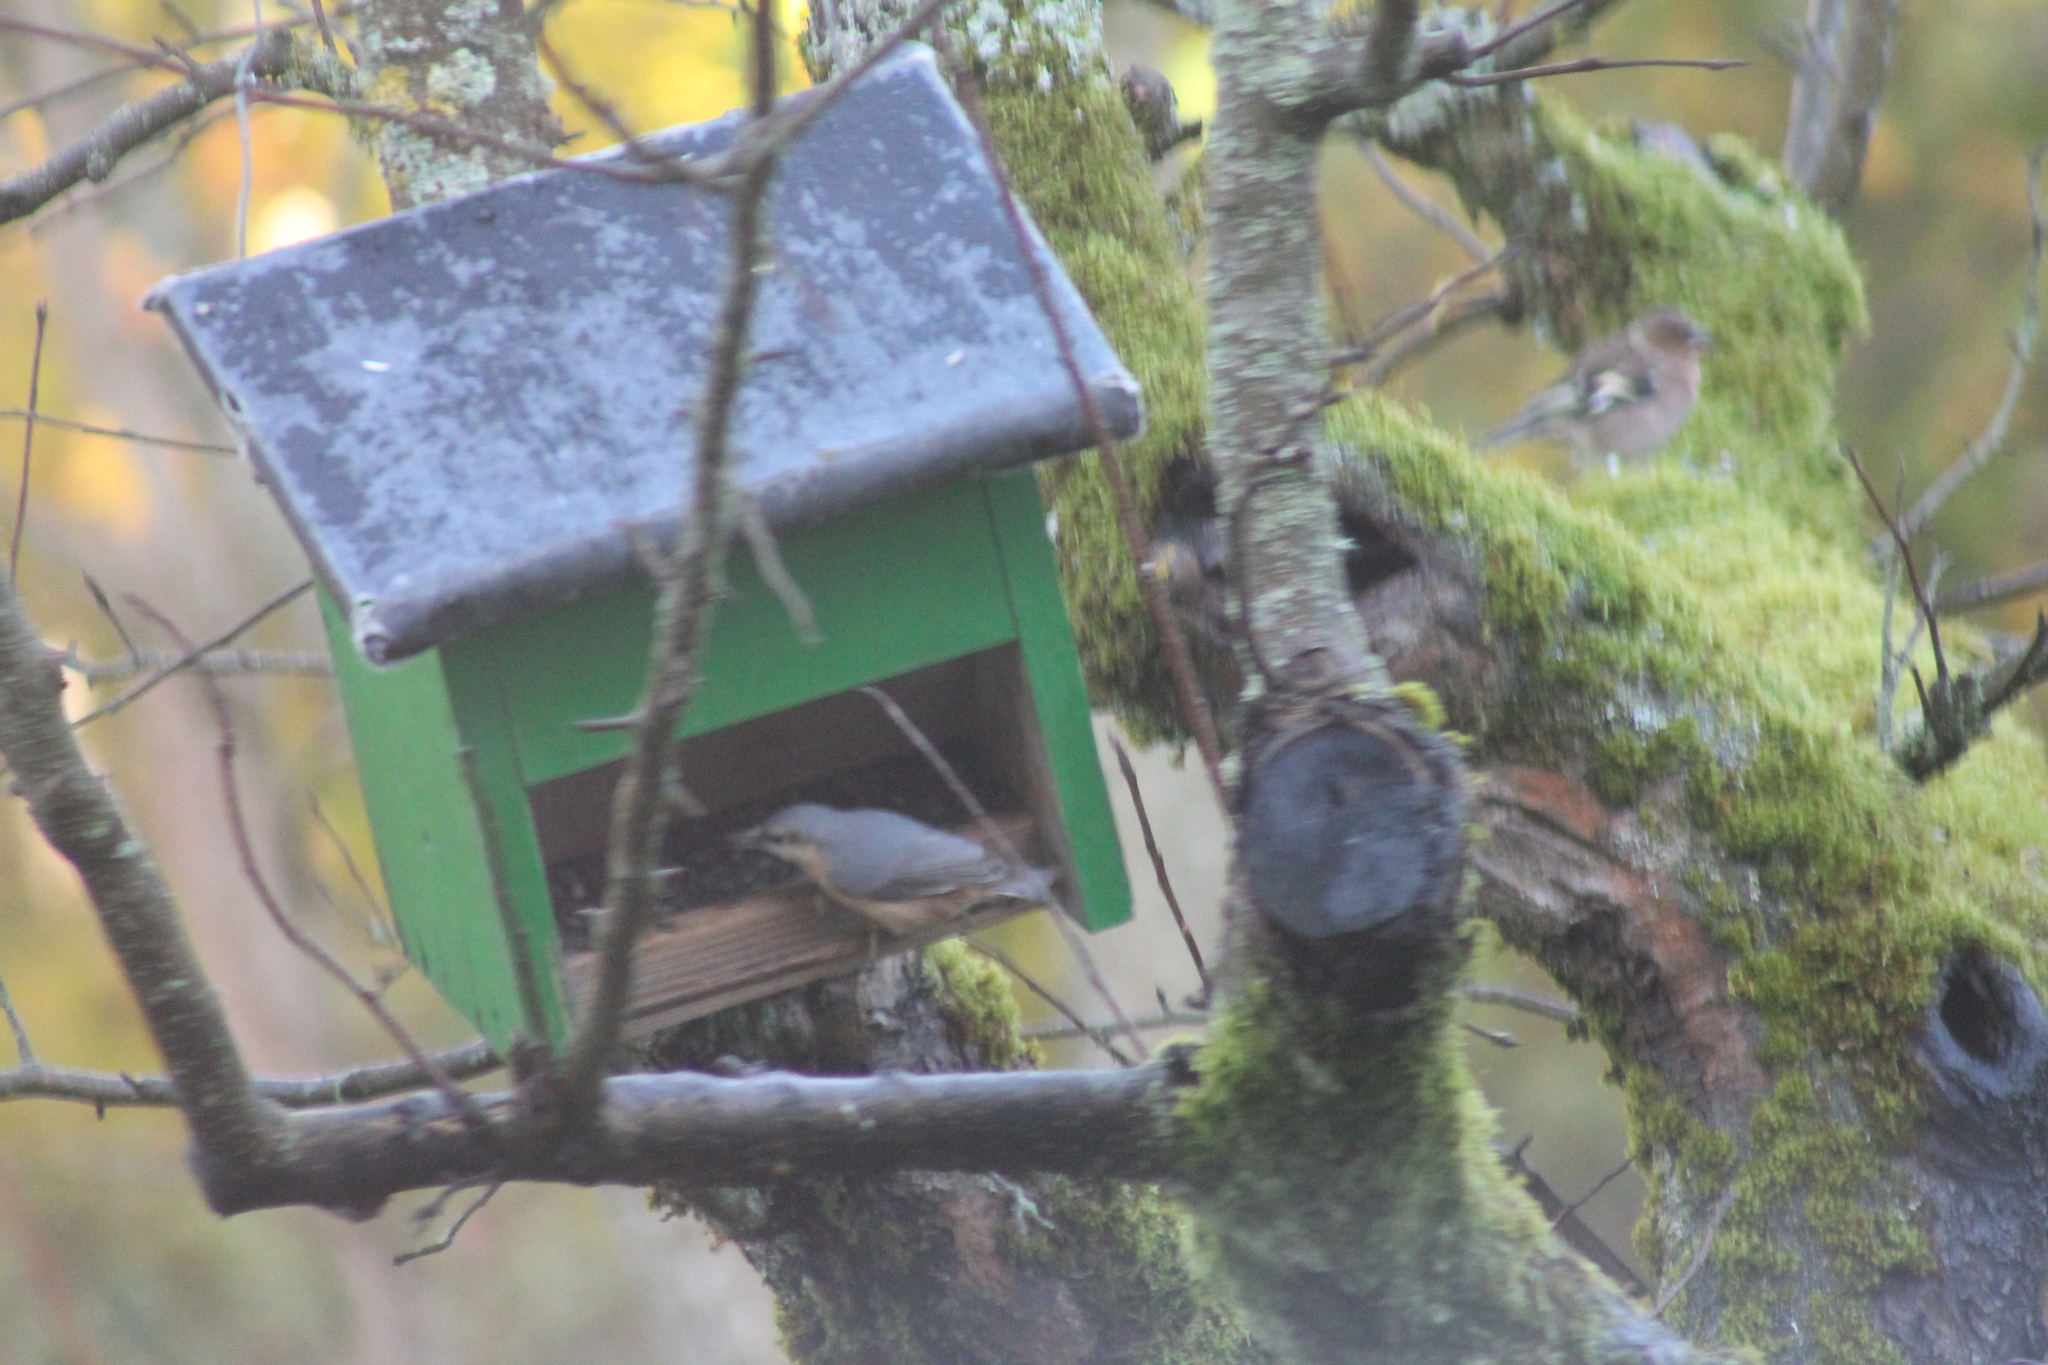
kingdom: Animalia
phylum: Chordata
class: Aves
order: Passeriformes
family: Sittidae
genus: Sitta
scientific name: Sitta europaea
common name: Eurasian nuthatch
